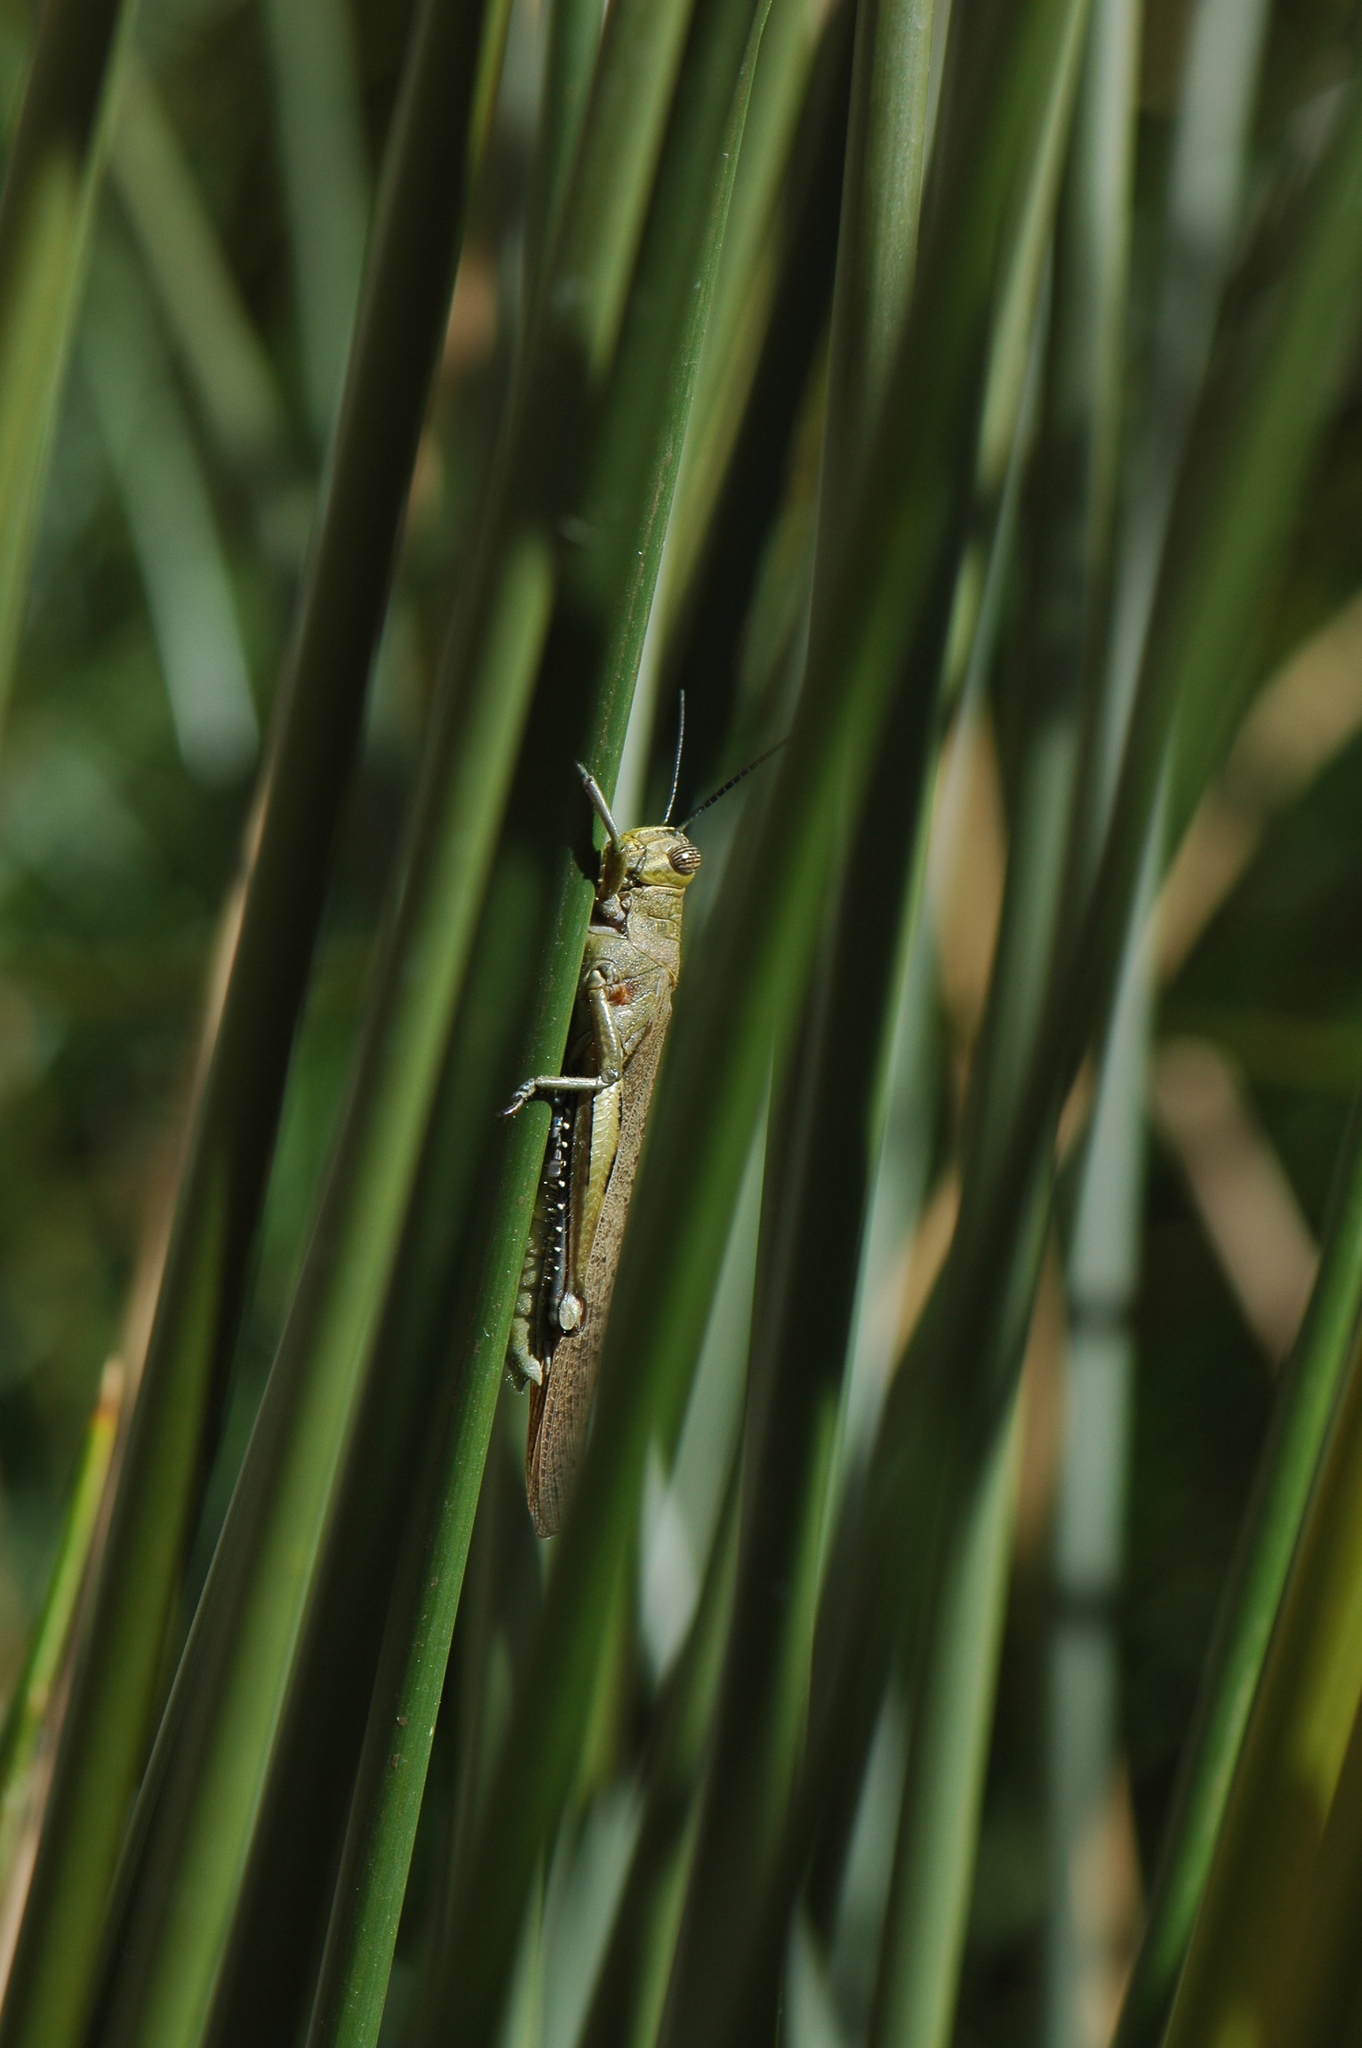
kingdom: Animalia
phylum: Arthropoda
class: Insecta
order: Orthoptera
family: Acrididae
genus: Anacridium
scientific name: Anacridium aegyptium
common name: Egyptian grasshopper
